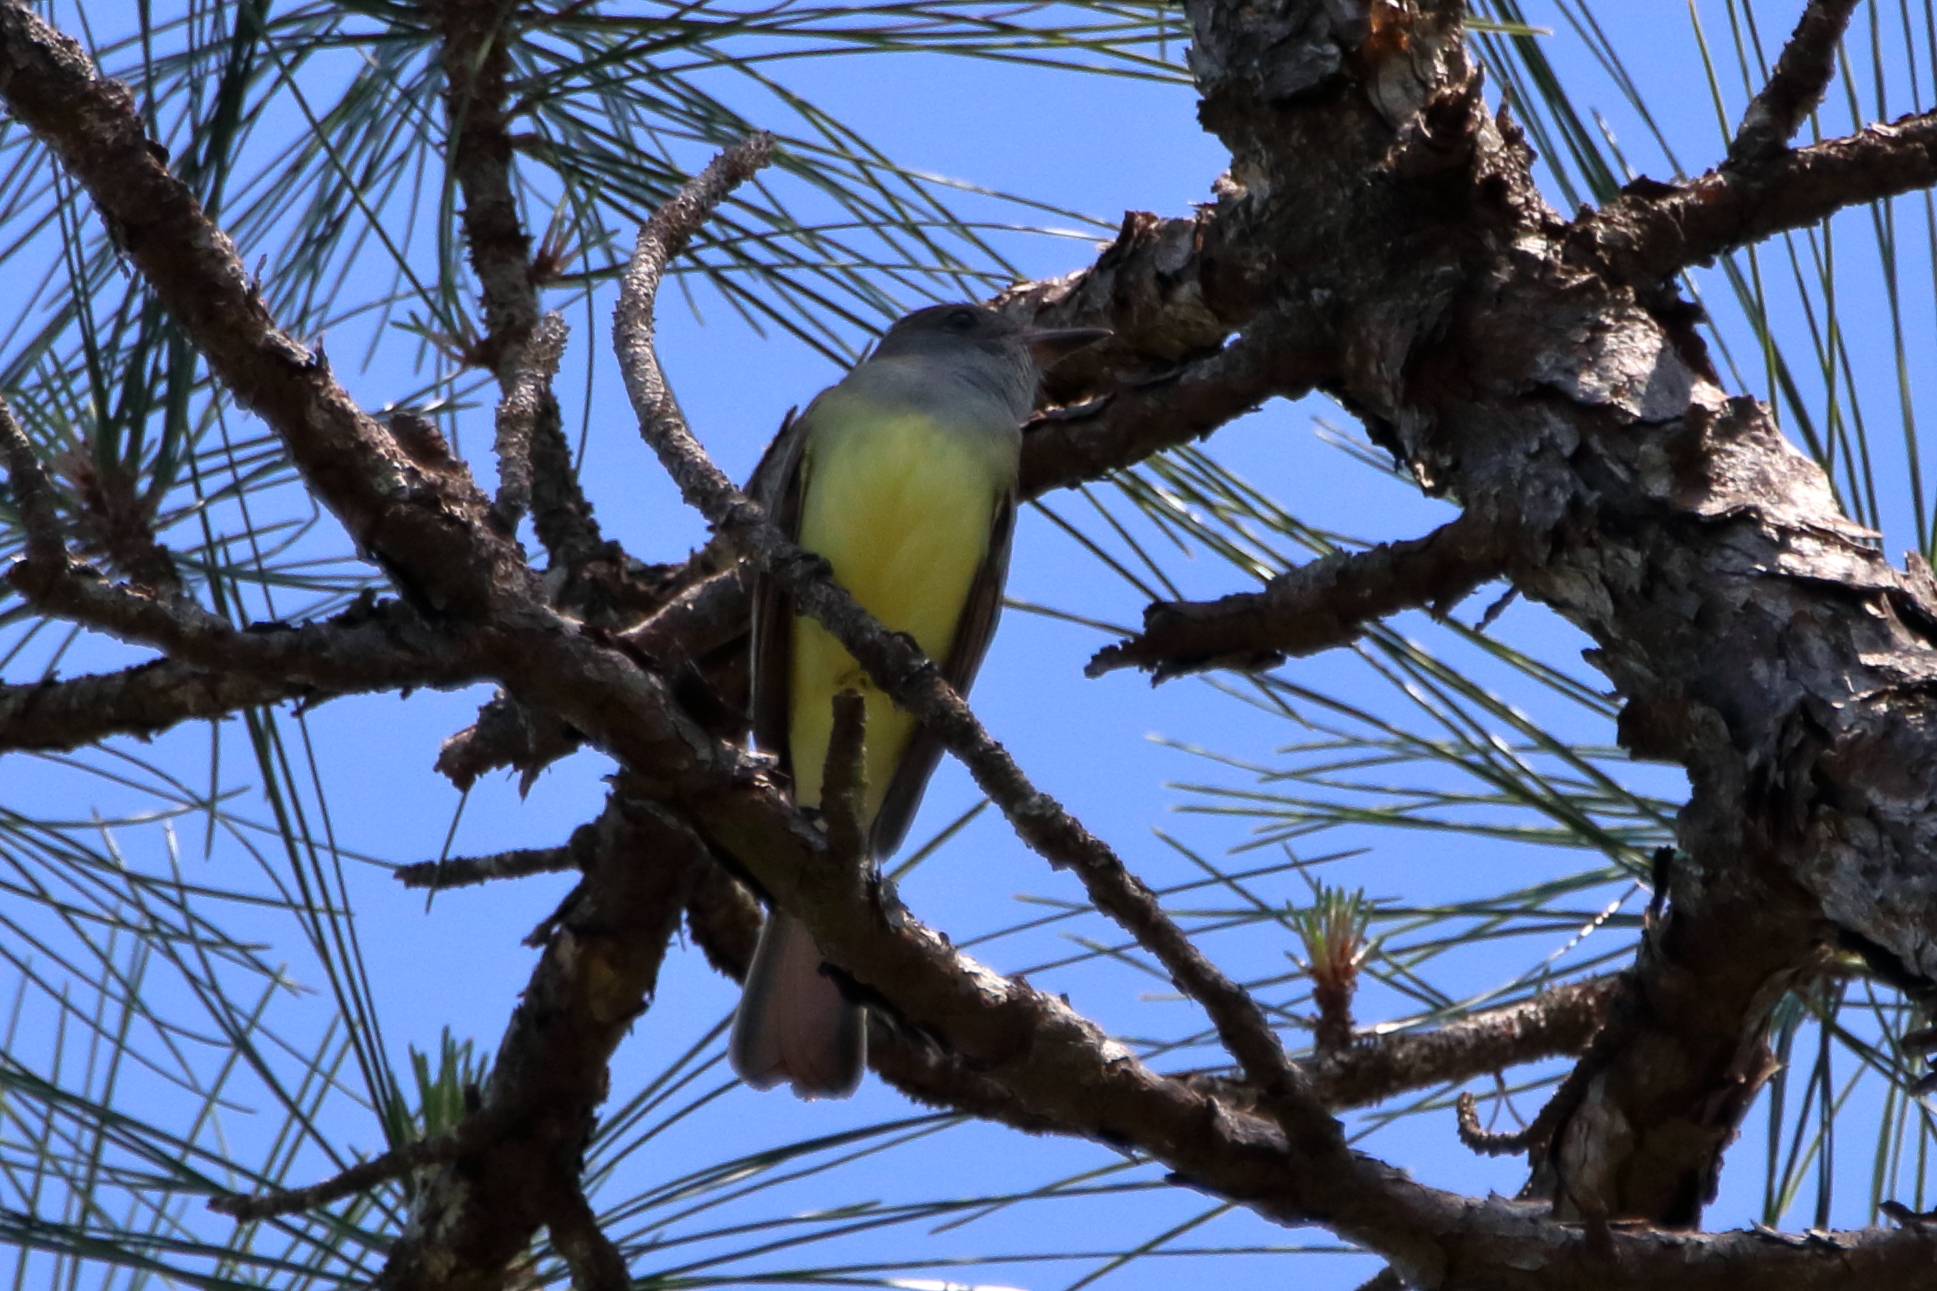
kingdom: Animalia
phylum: Chordata
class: Aves
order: Passeriformes
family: Tyrannidae
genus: Myiarchus
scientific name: Myiarchus crinitus
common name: Great crested flycatcher
